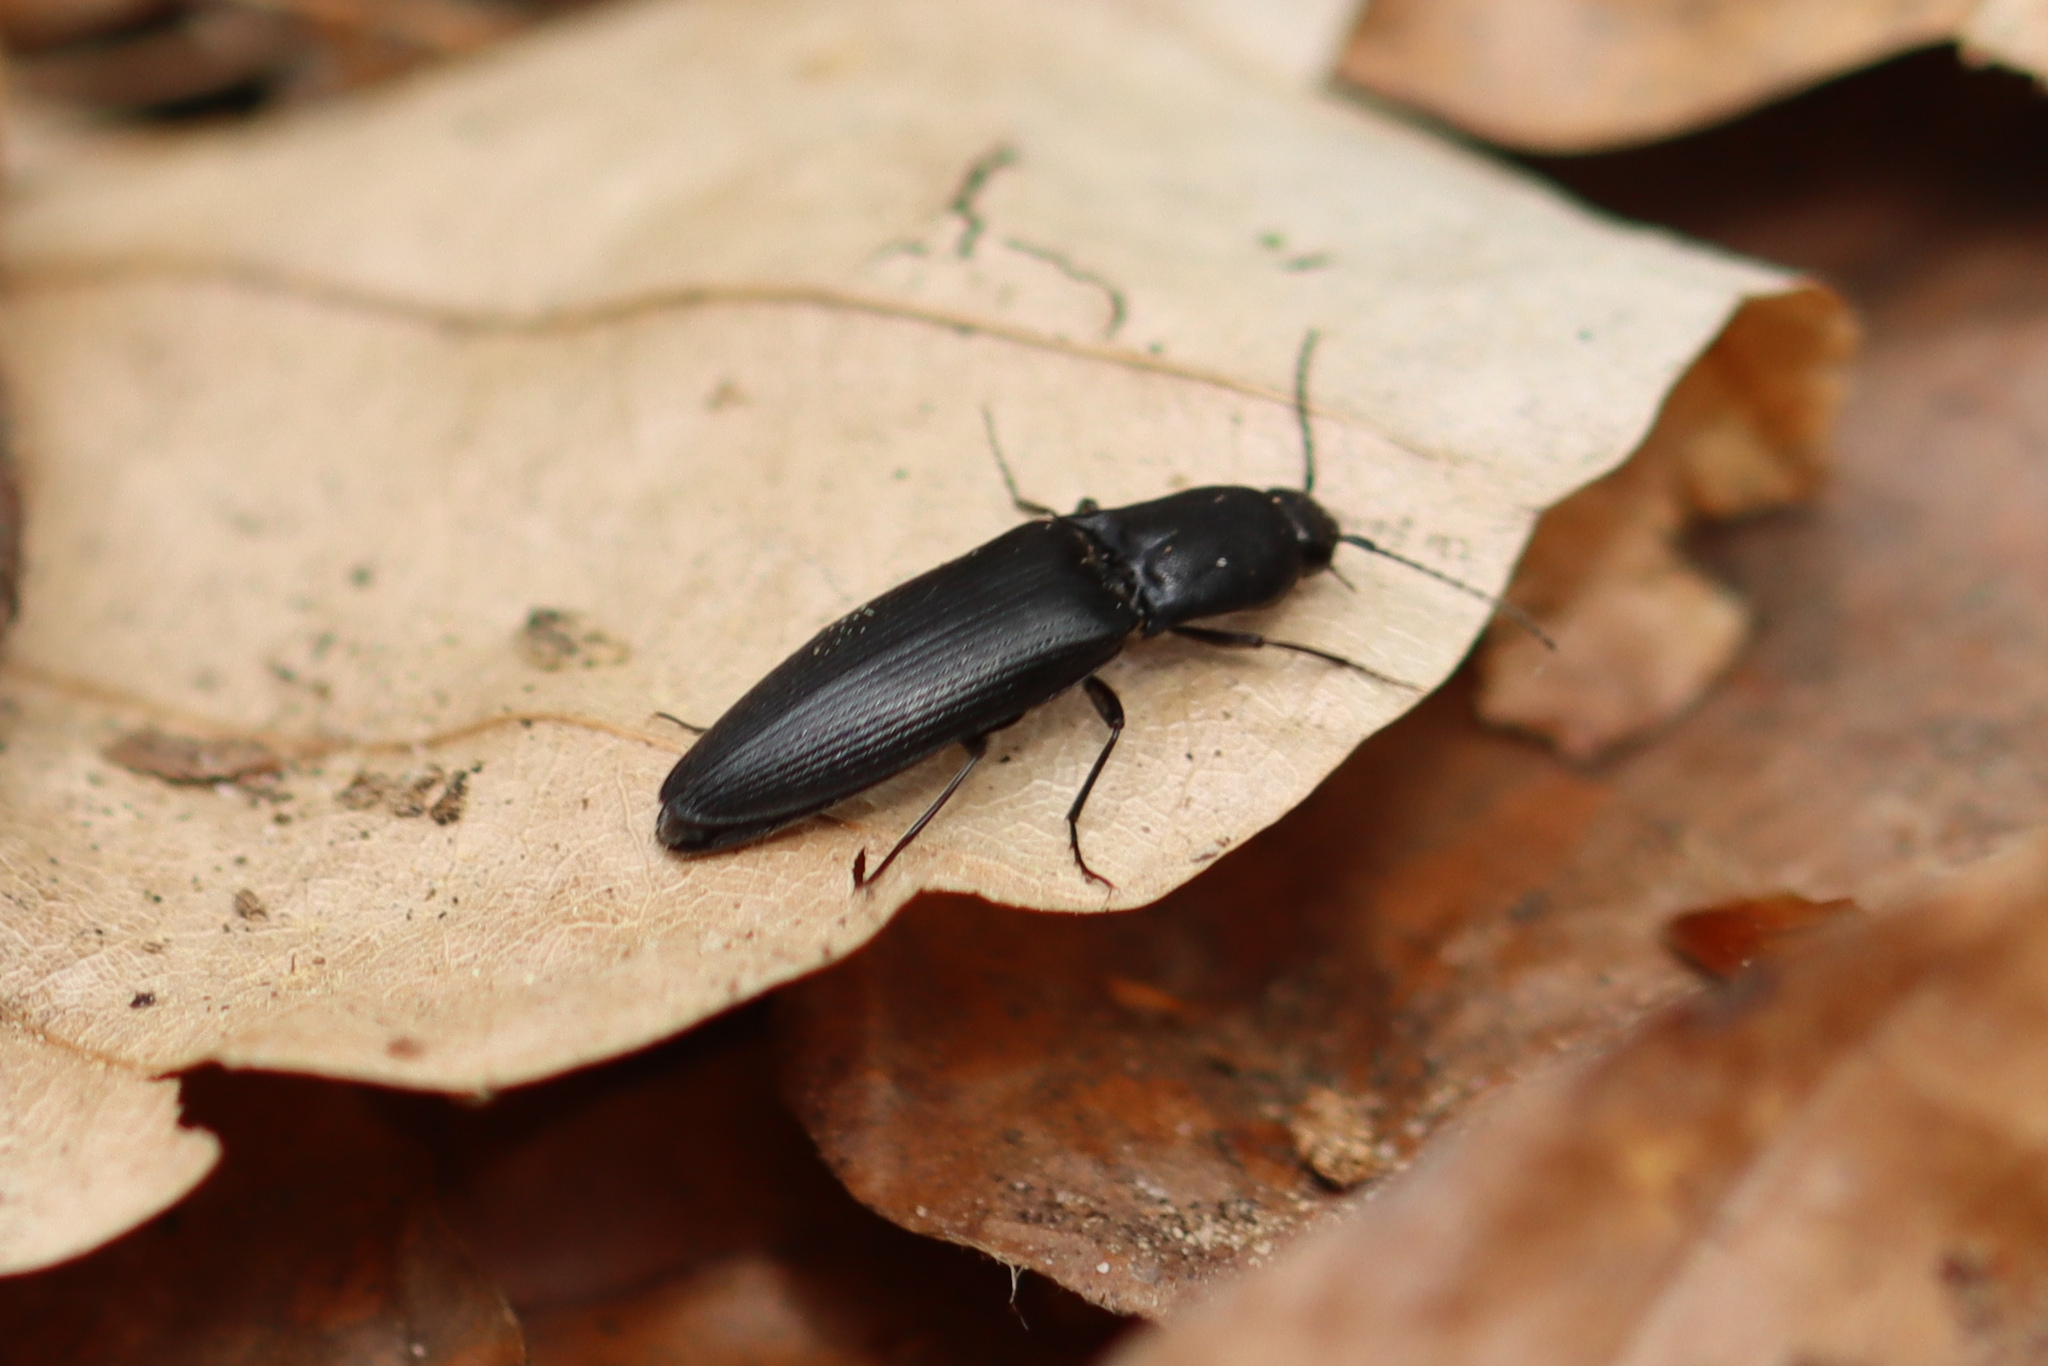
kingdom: Animalia
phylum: Arthropoda
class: Insecta
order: Coleoptera
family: Elateridae
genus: Ectinus
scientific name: Ectinus aterrimus
